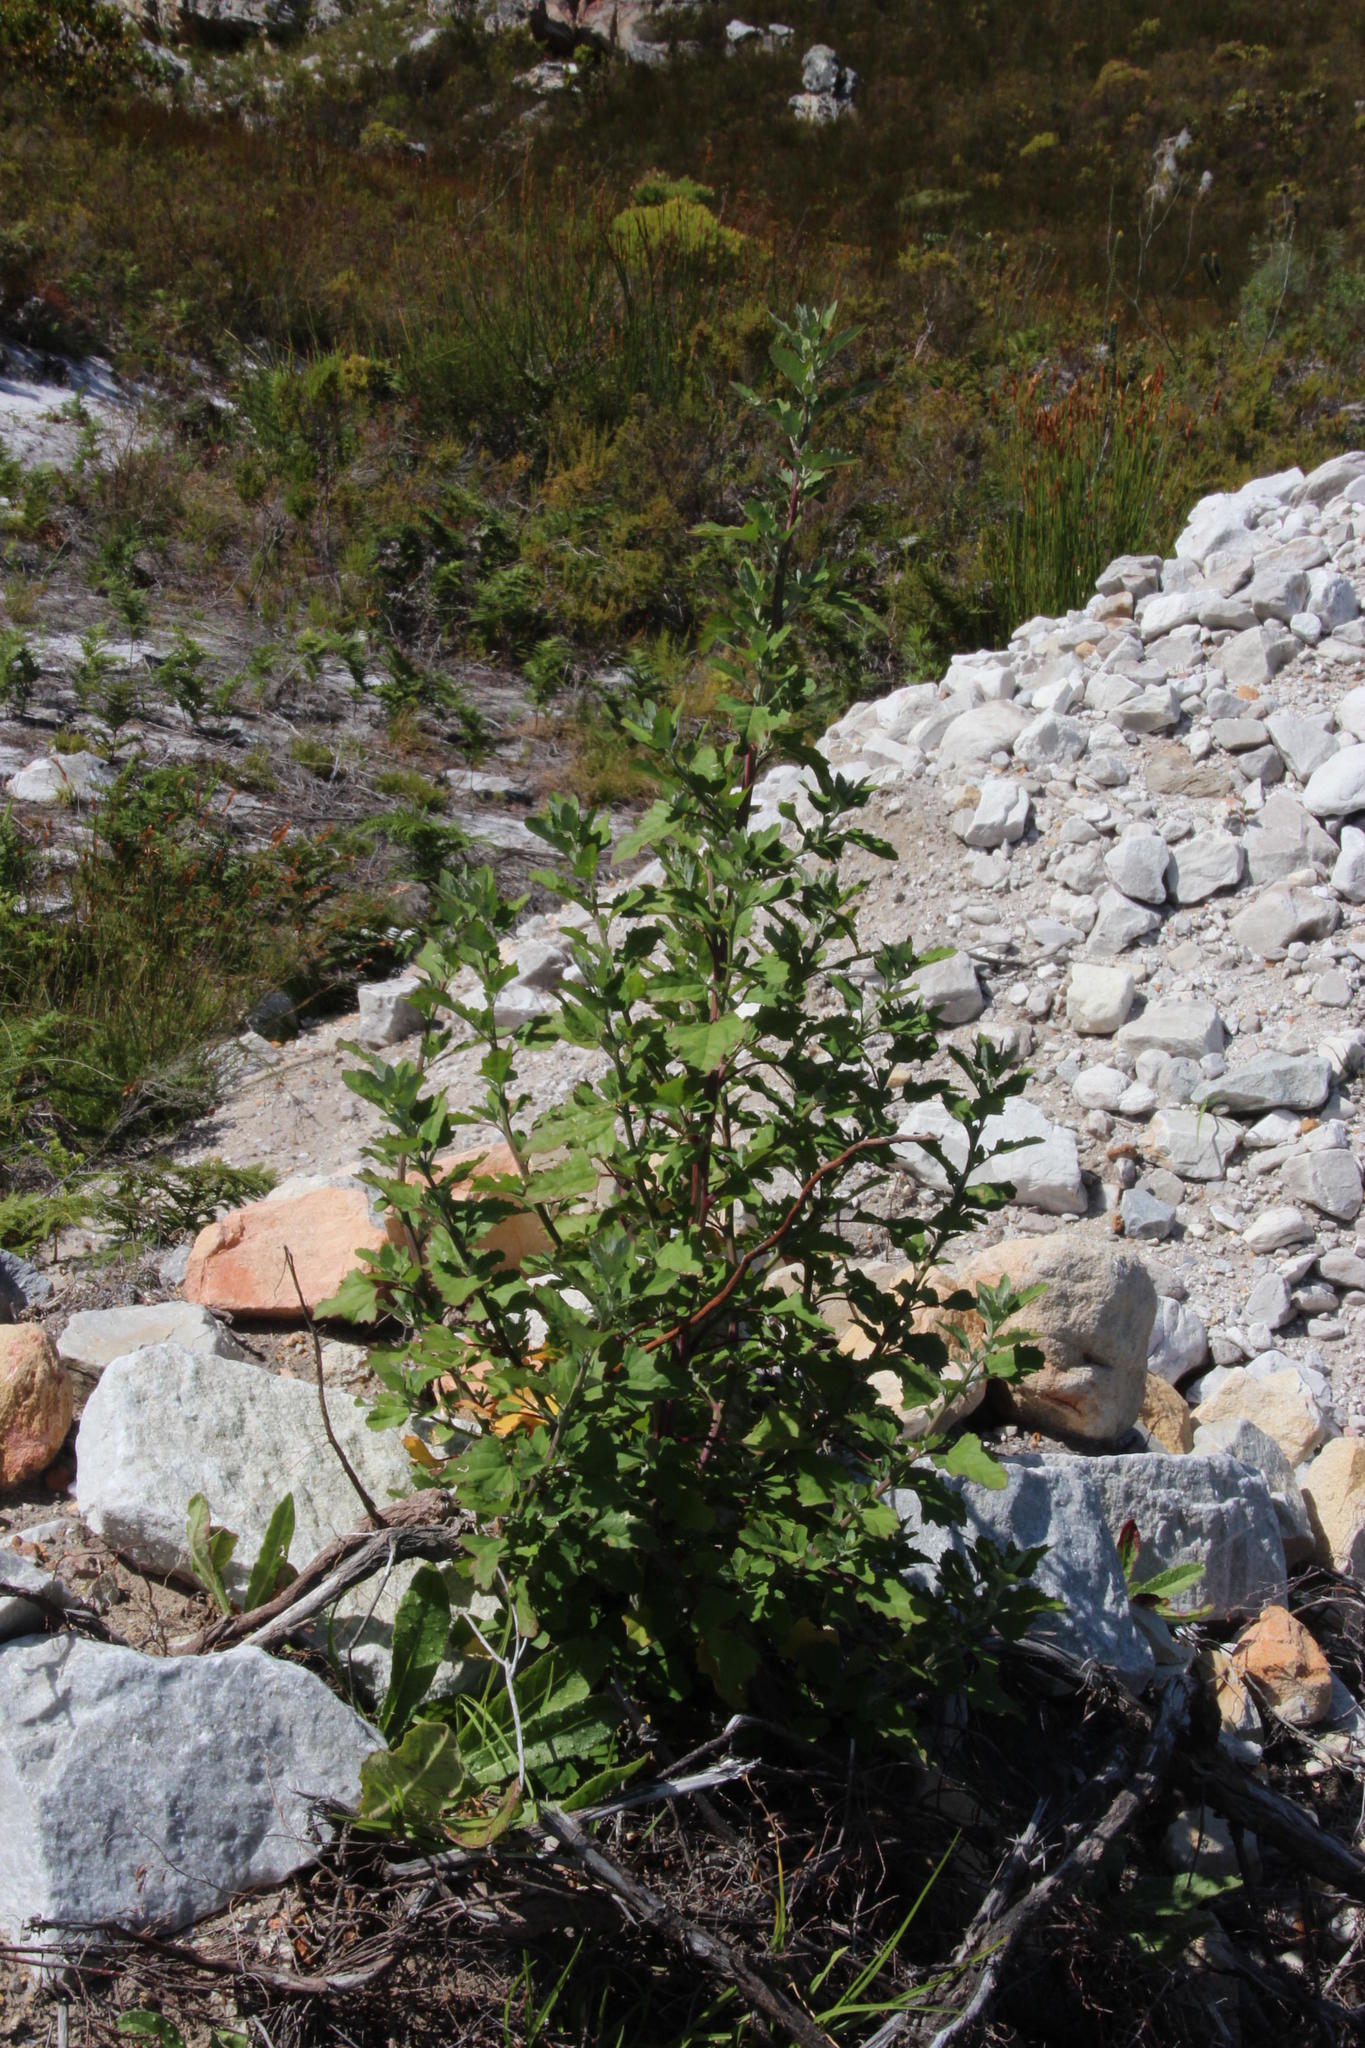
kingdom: Plantae
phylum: Tracheophyta
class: Magnoliopsida
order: Caryophyllales
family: Amaranthaceae
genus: Chenopodium
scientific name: Chenopodium album
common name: Fat-hen
